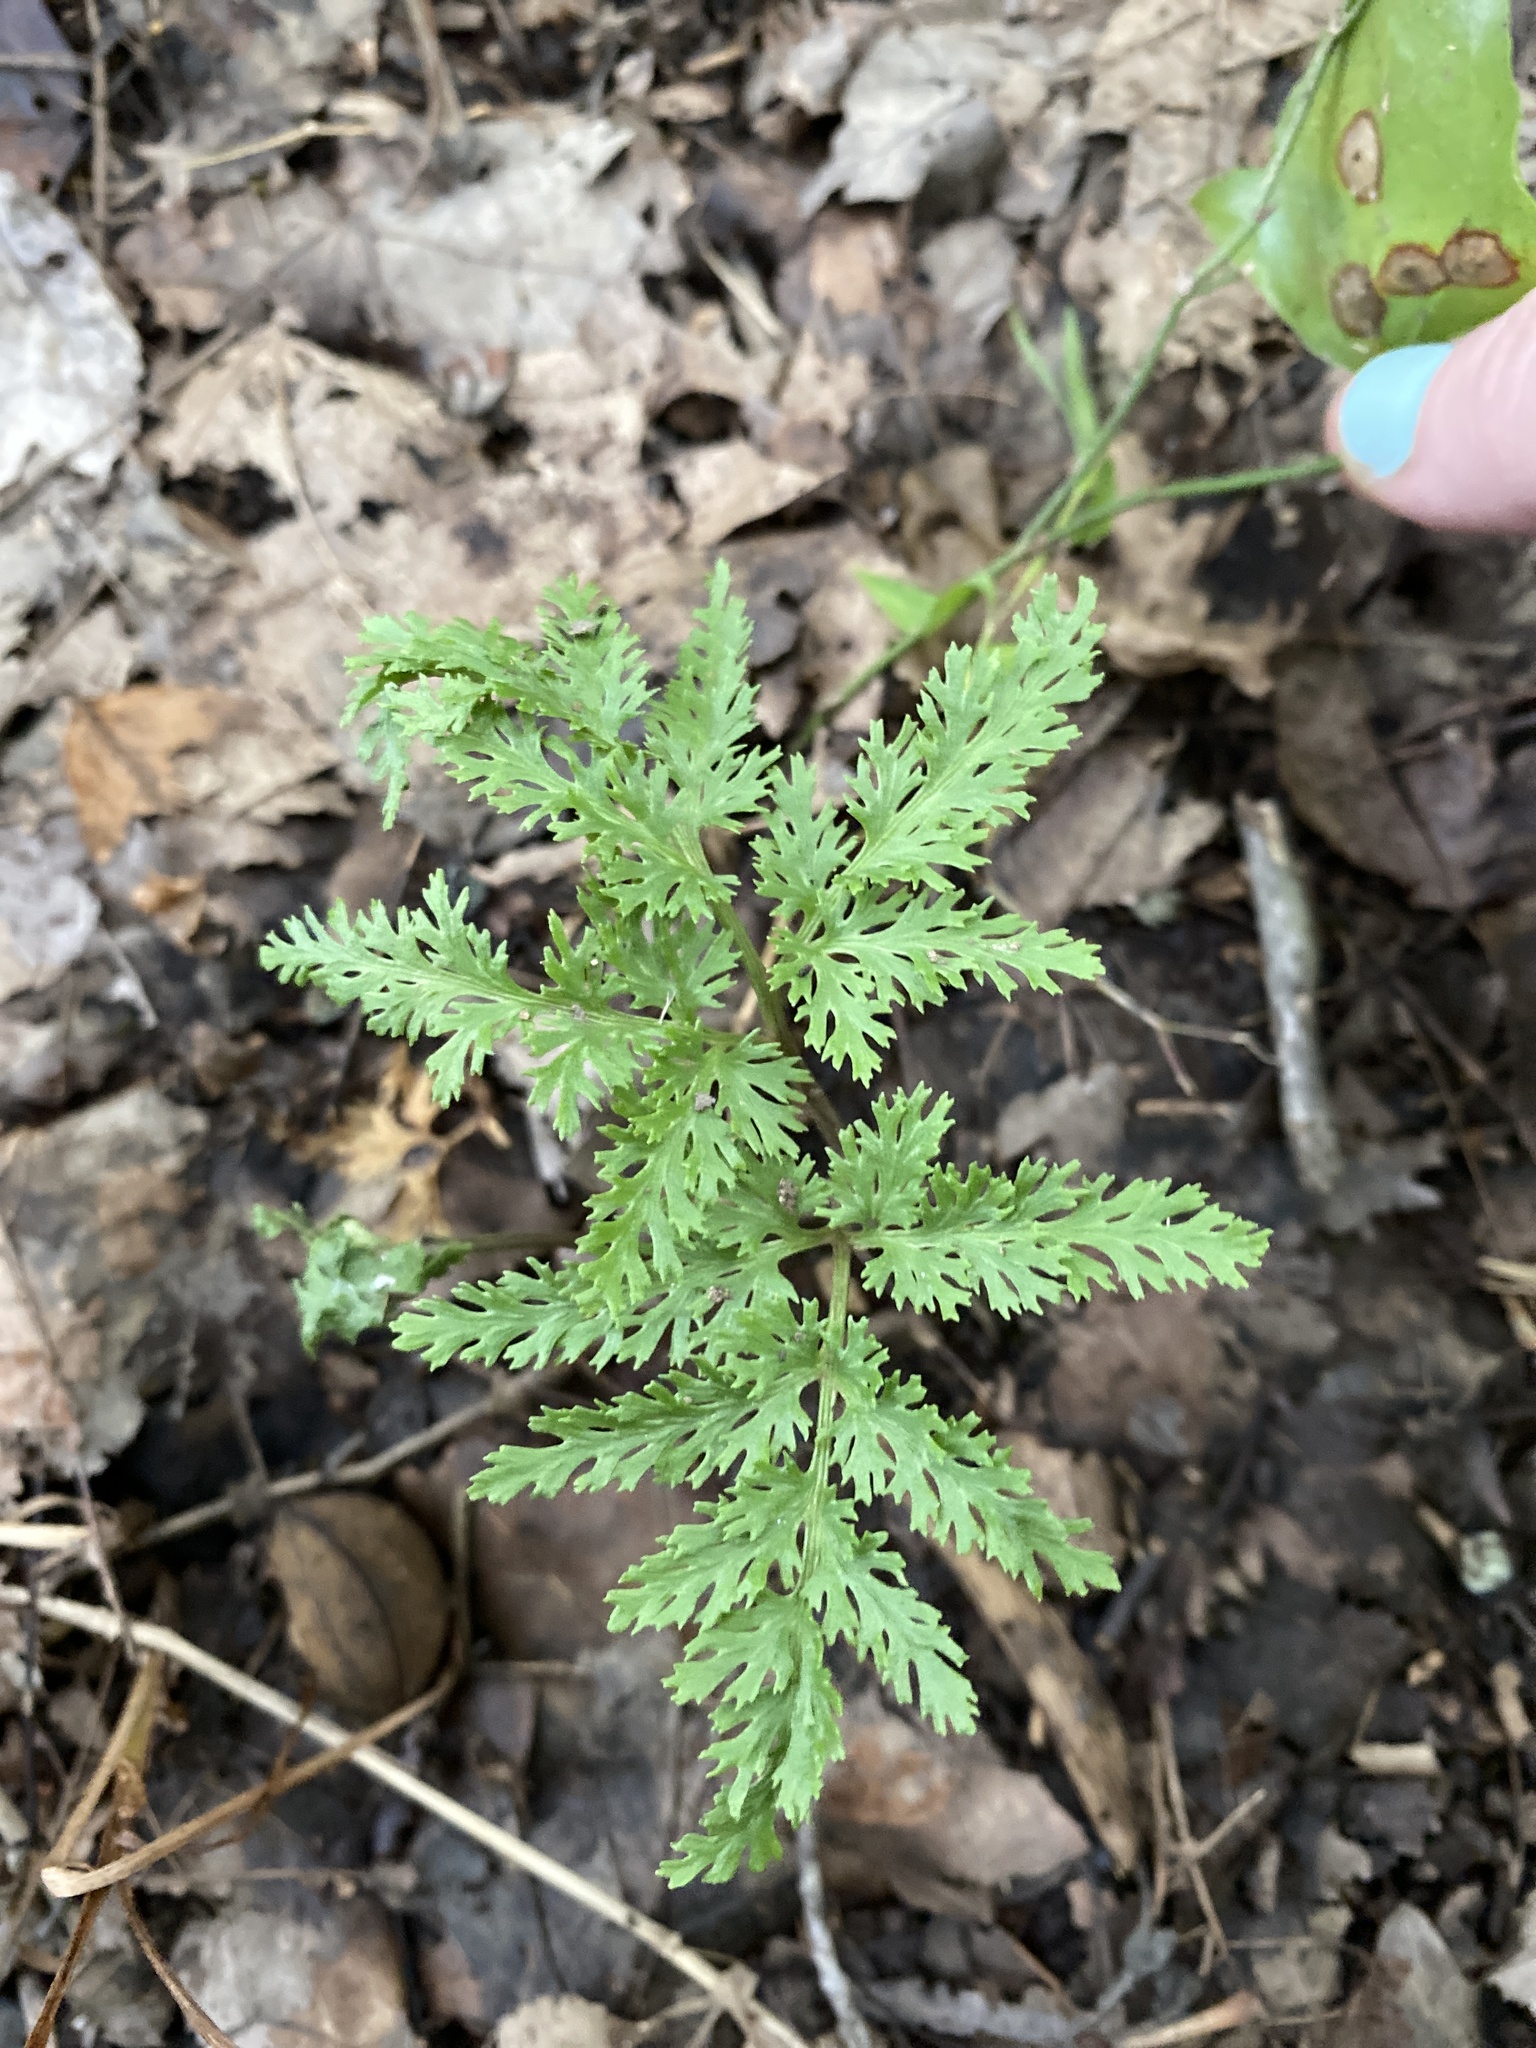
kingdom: Plantae
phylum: Tracheophyta
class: Polypodiopsida
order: Ophioglossales
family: Ophioglossaceae
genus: Sceptridium
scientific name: Sceptridium dissectum
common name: Cut-leaved grapefern
